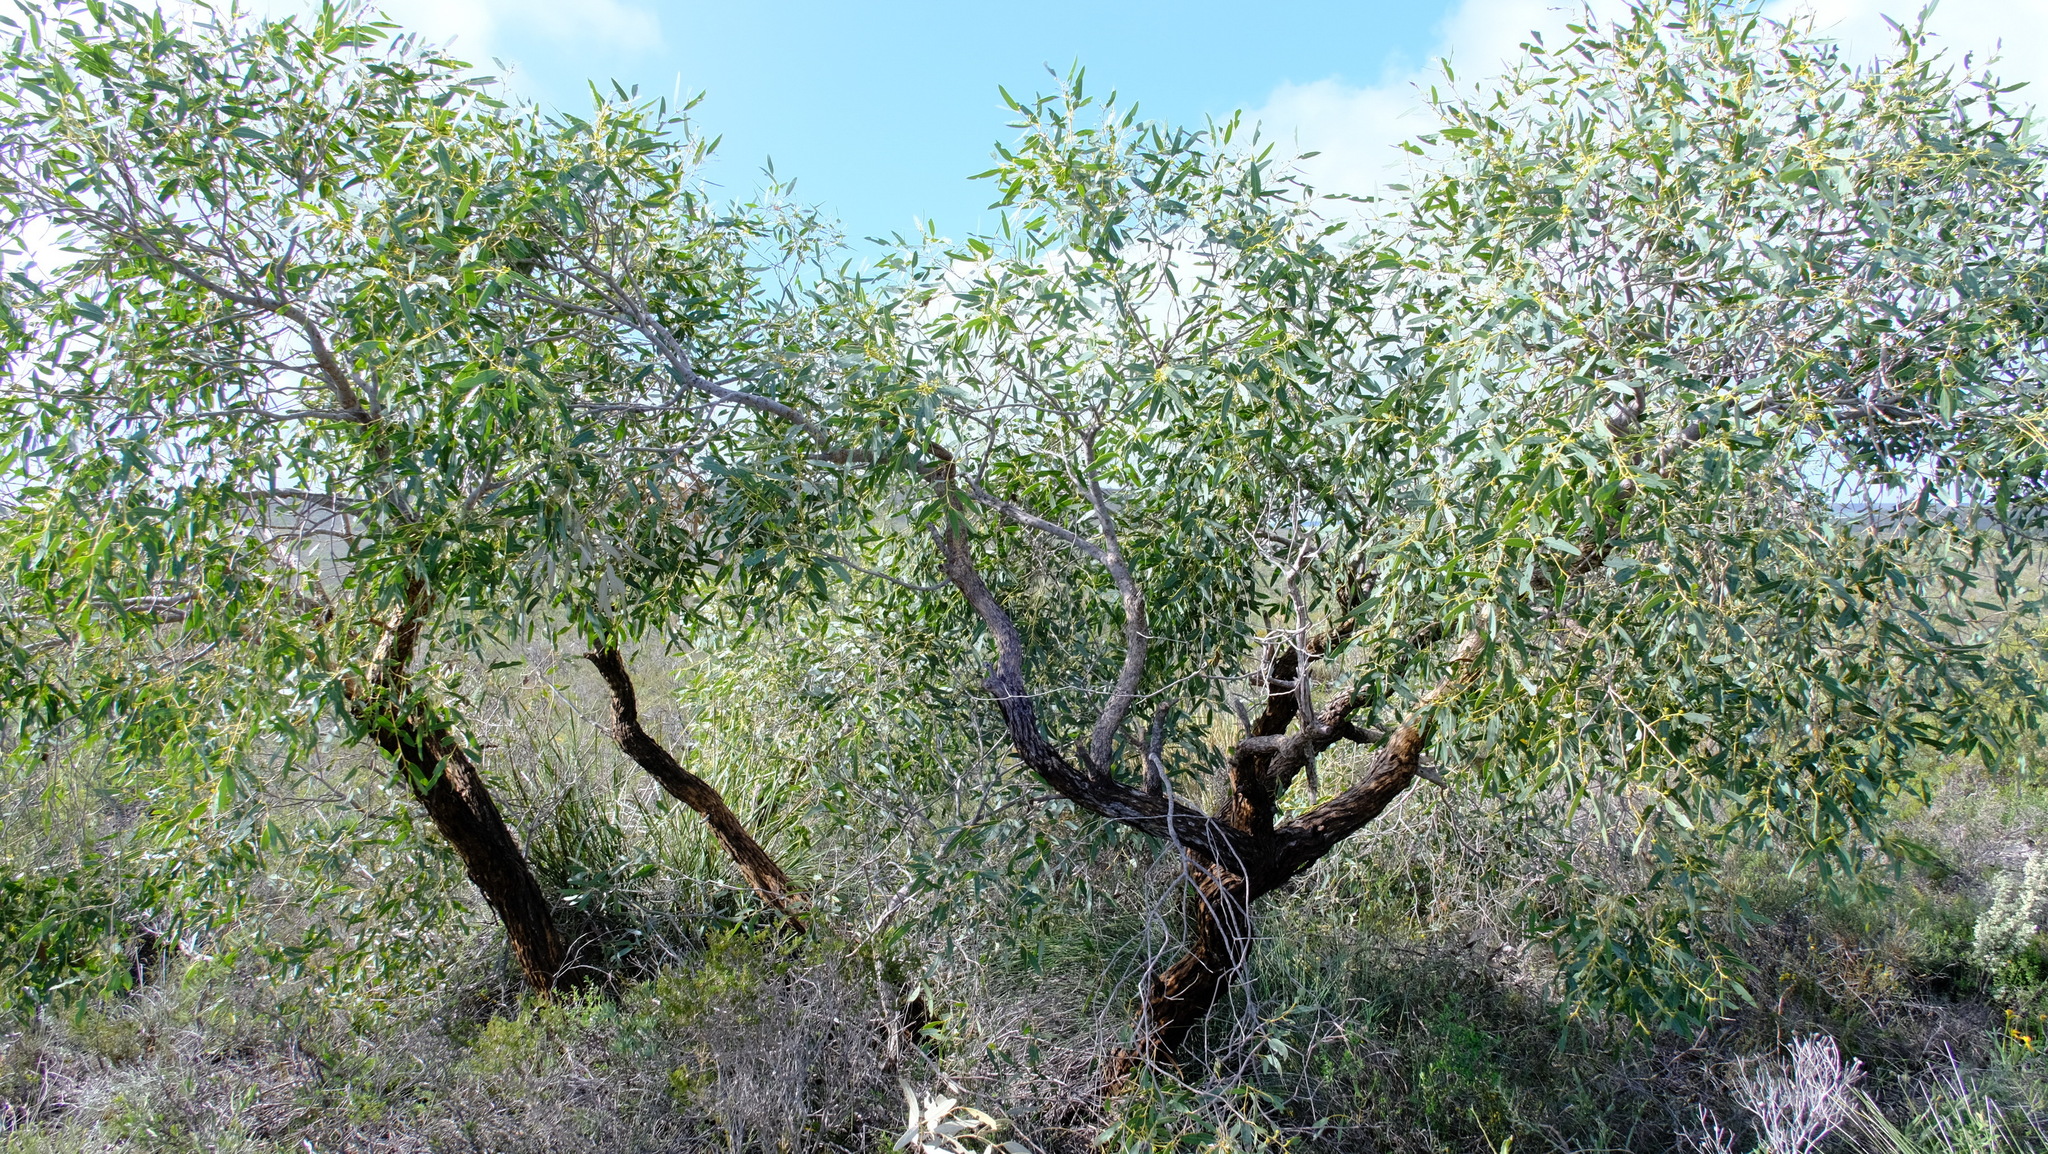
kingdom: Plantae
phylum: Tracheophyta
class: Magnoliopsida
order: Myrtales
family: Myrtaceae
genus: Eucalyptus
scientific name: Eucalyptus todtiana
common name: Coastal blackbutt
